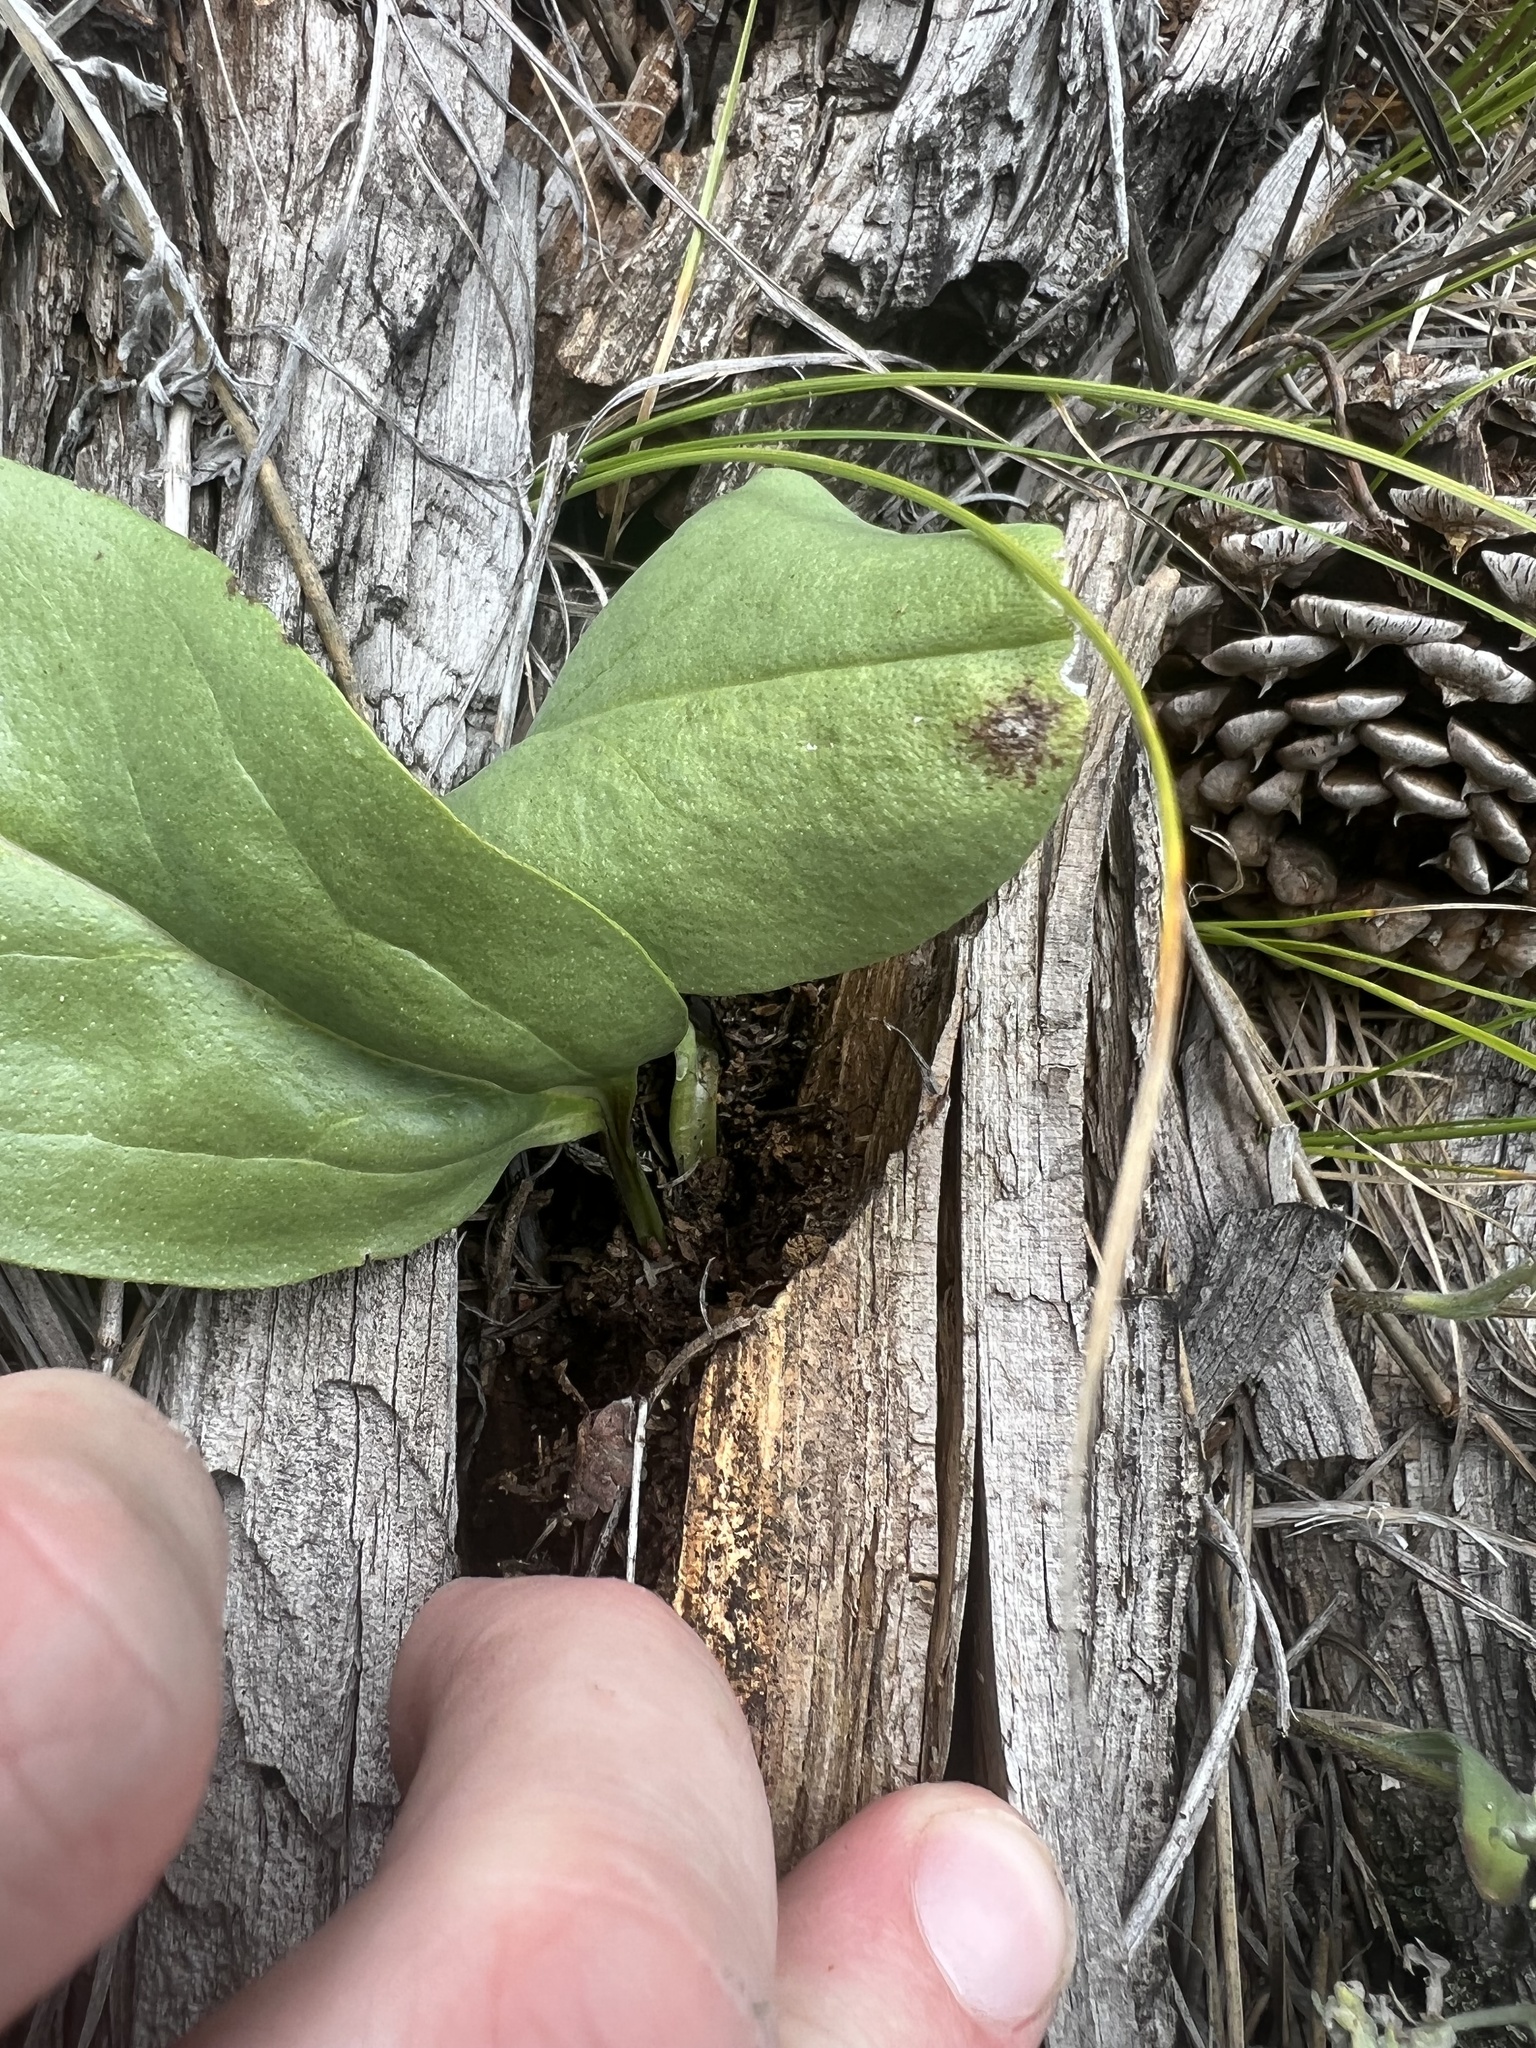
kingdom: Plantae
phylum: Tracheophyta
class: Liliopsida
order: Asparagales
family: Orchidaceae
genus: Cypripedium
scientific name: Cypripedium fasciculatum
